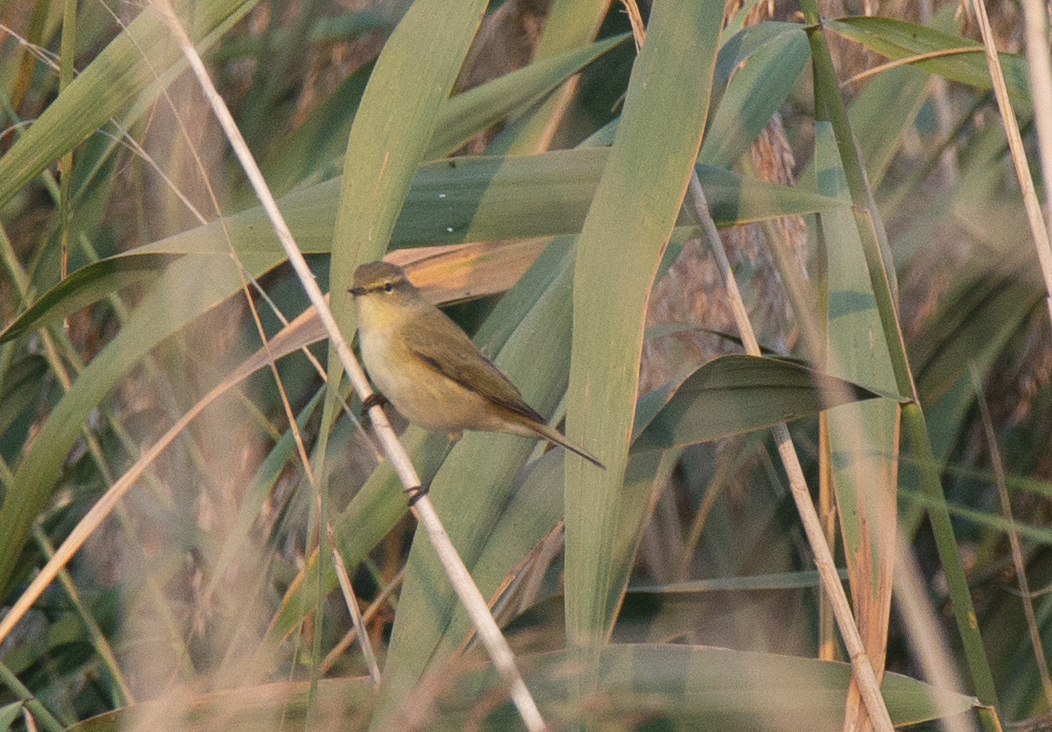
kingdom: Animalia
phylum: Chordata
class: Aves
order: Passeriformes
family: Phylloscopidae
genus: Phylloscopus
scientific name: Phylloscopus collybita
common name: Common chiffchaff
